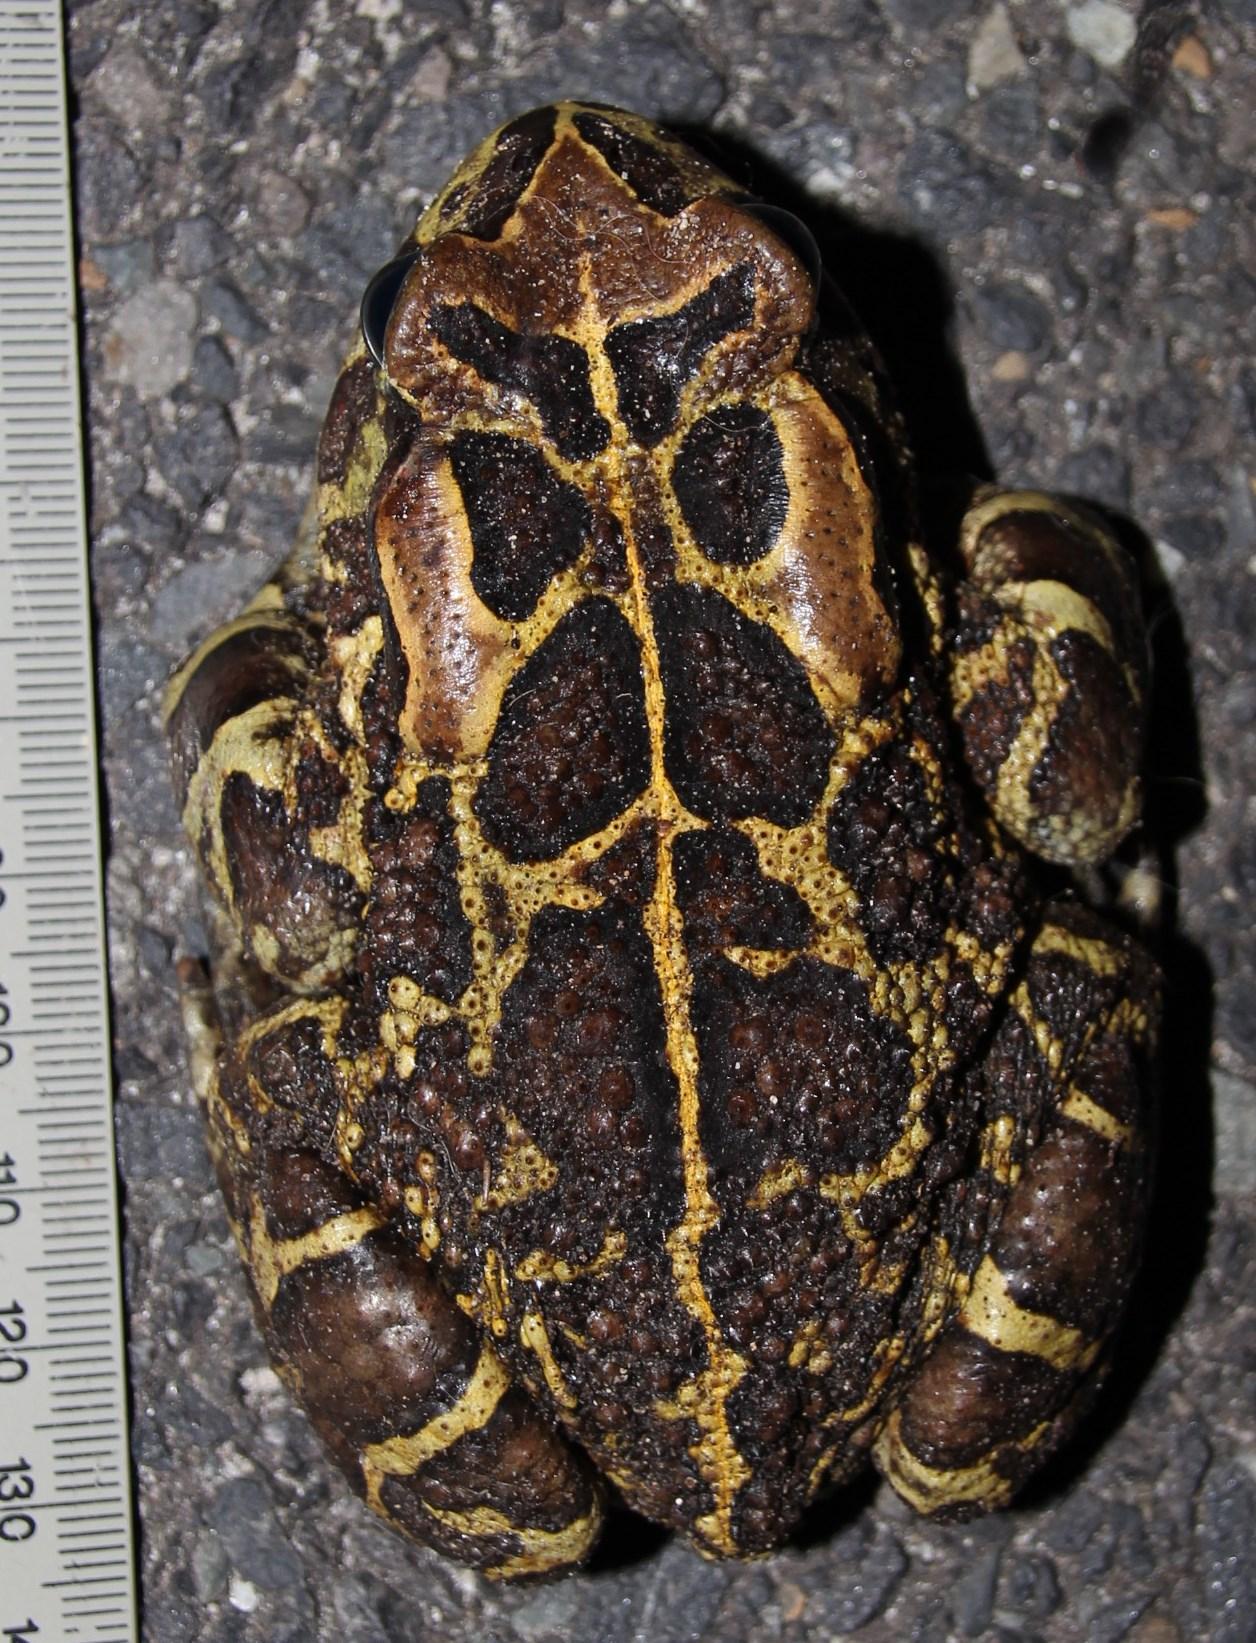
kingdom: Animalia
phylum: Chordata
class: Amphibia
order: Anura
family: Bufonidae
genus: Sclerophrys
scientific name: Sclerophrys pantherina
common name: Panther toad
